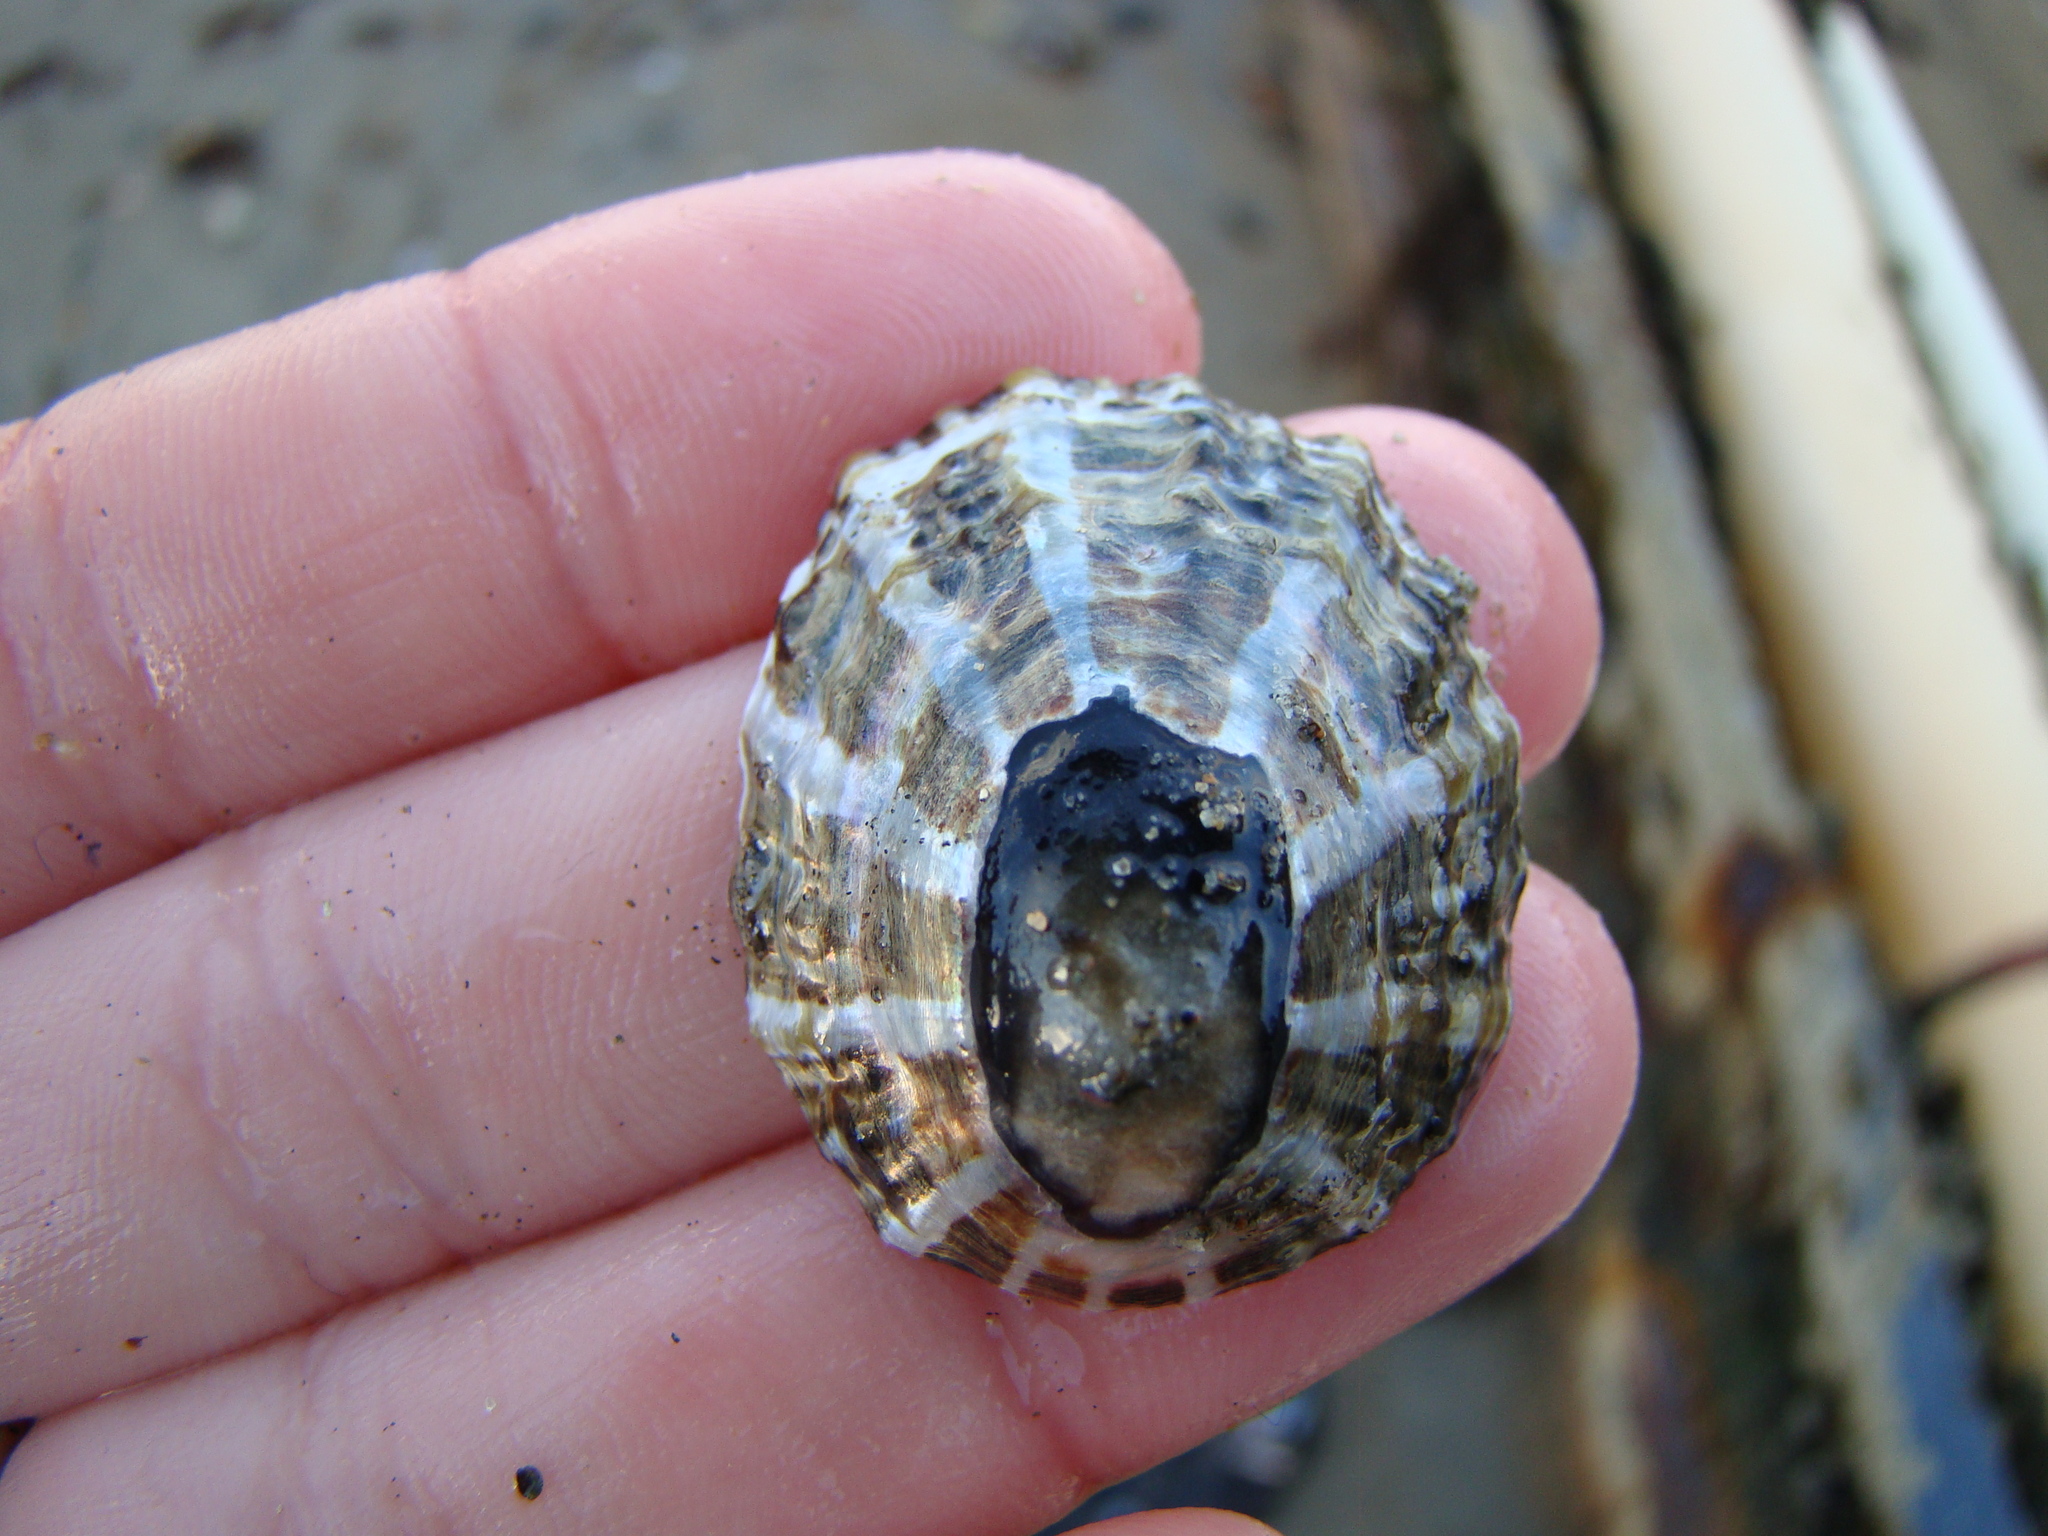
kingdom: Animalia
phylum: Mollusca
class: Gastropoda
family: Nacellidae
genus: Cellana
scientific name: Cellana ornata
